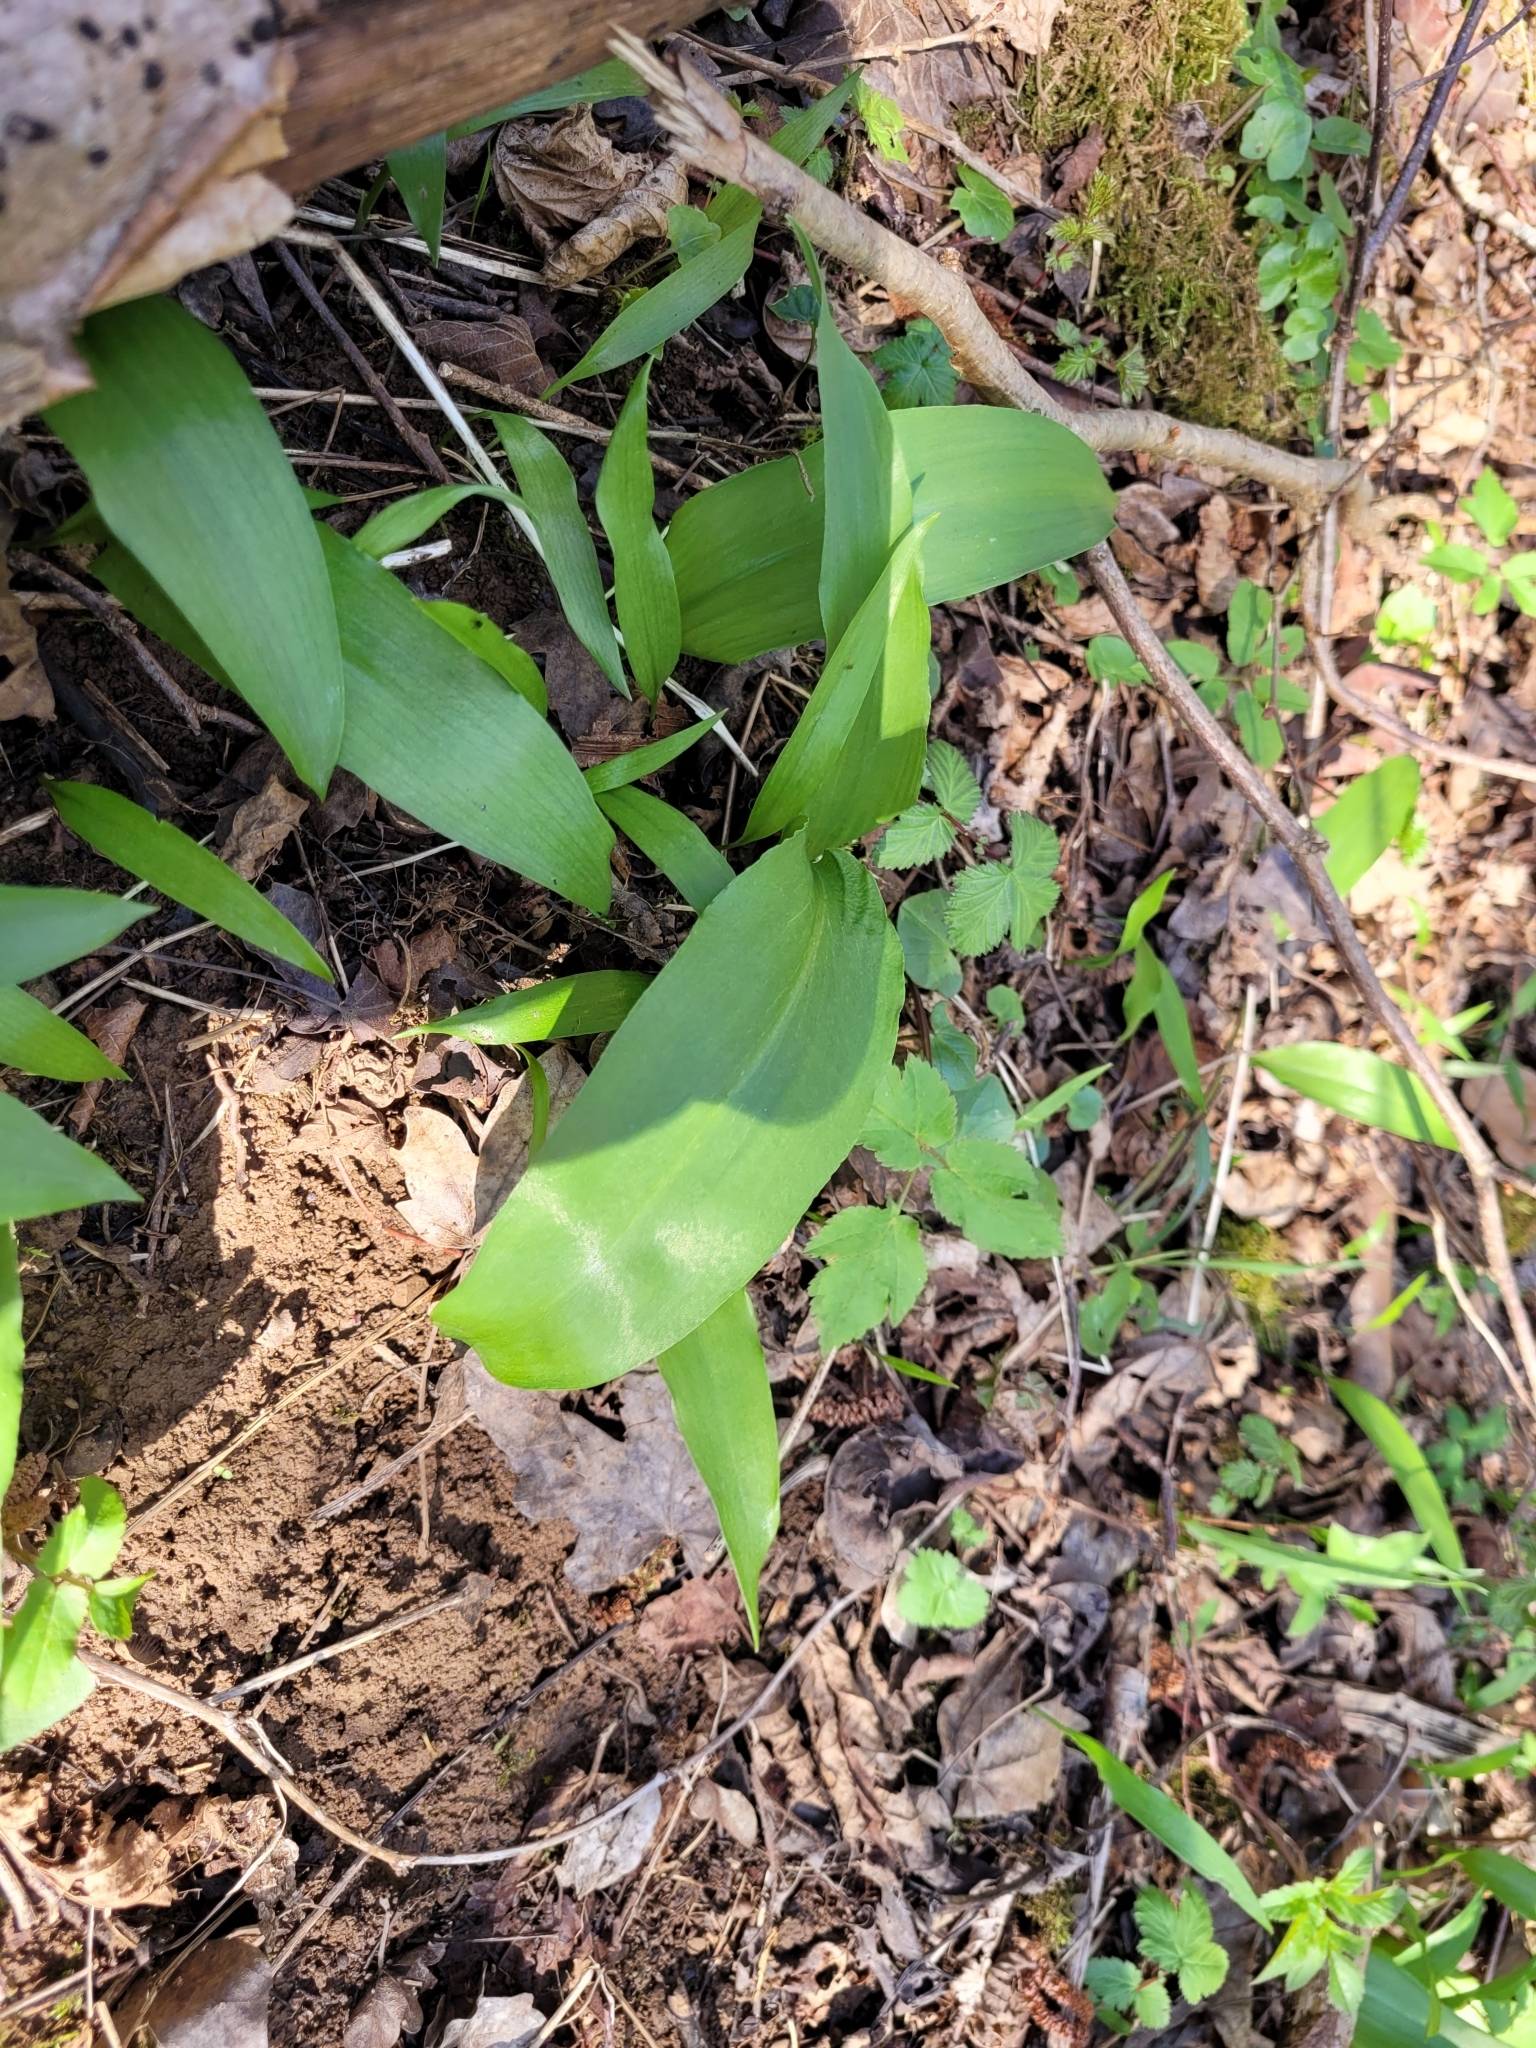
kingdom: Plantae
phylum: Tracheophyta
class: Liliopsida
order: Asparagales
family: Amaryllidaceae
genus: Allium
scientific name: Allium ursinum
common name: Ramsons
